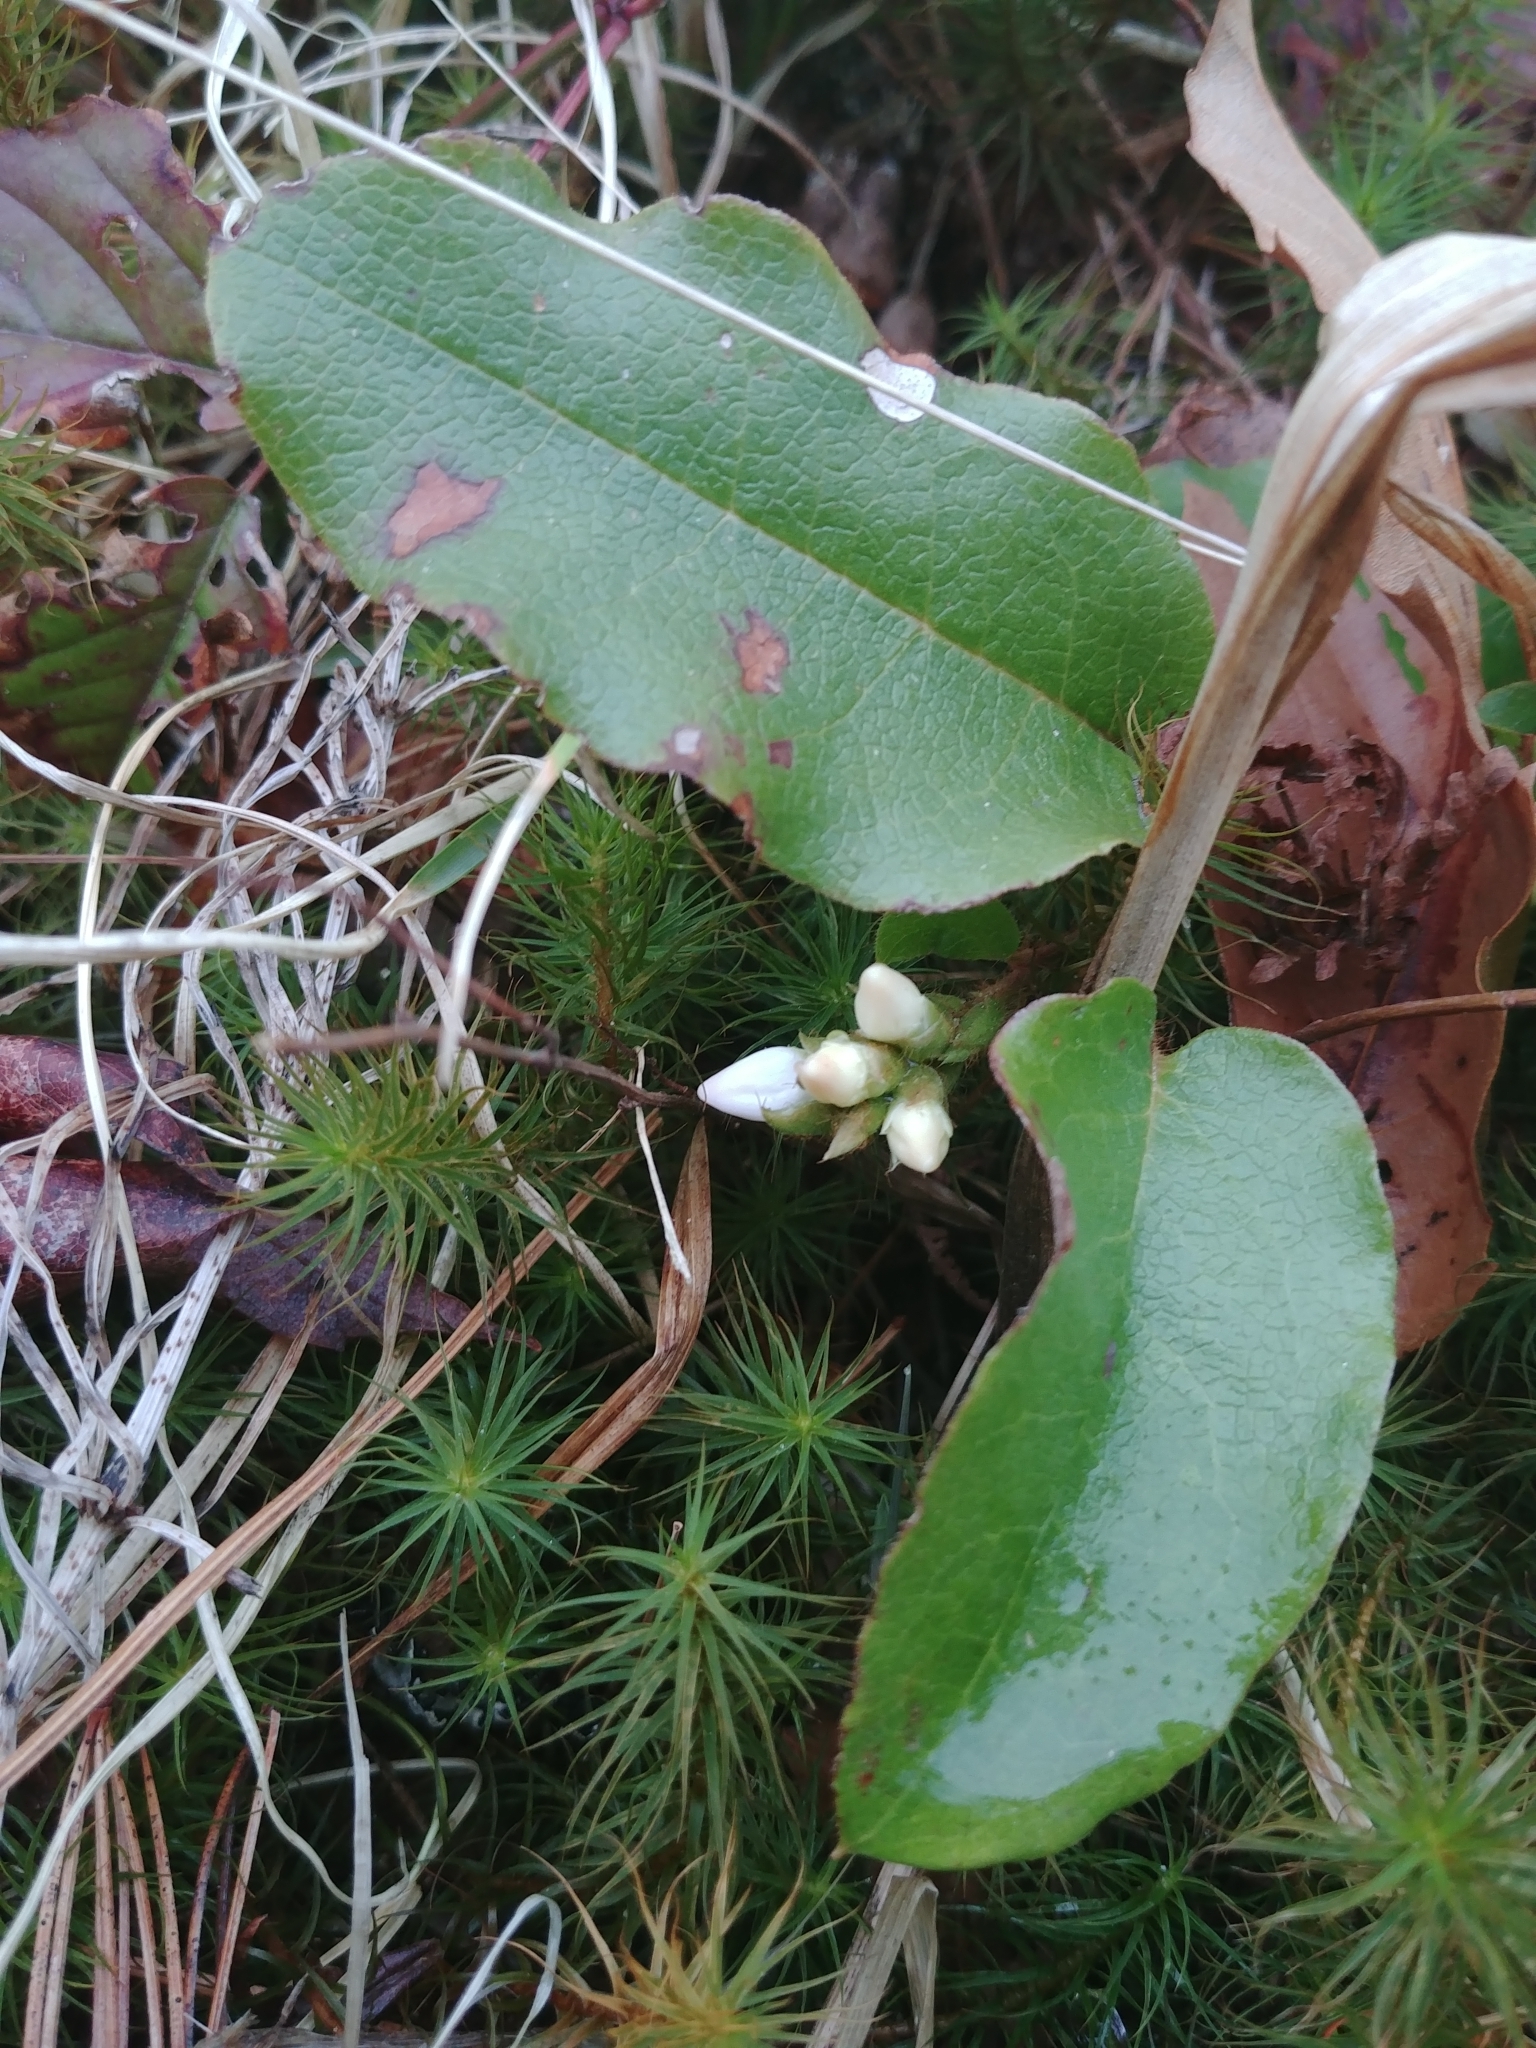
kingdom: Plantae
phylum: Tracheophyta
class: Magnoliopsida
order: Ericales
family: Ericaceae
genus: Epigaea
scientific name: Epigaea repens
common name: Gravelroot
